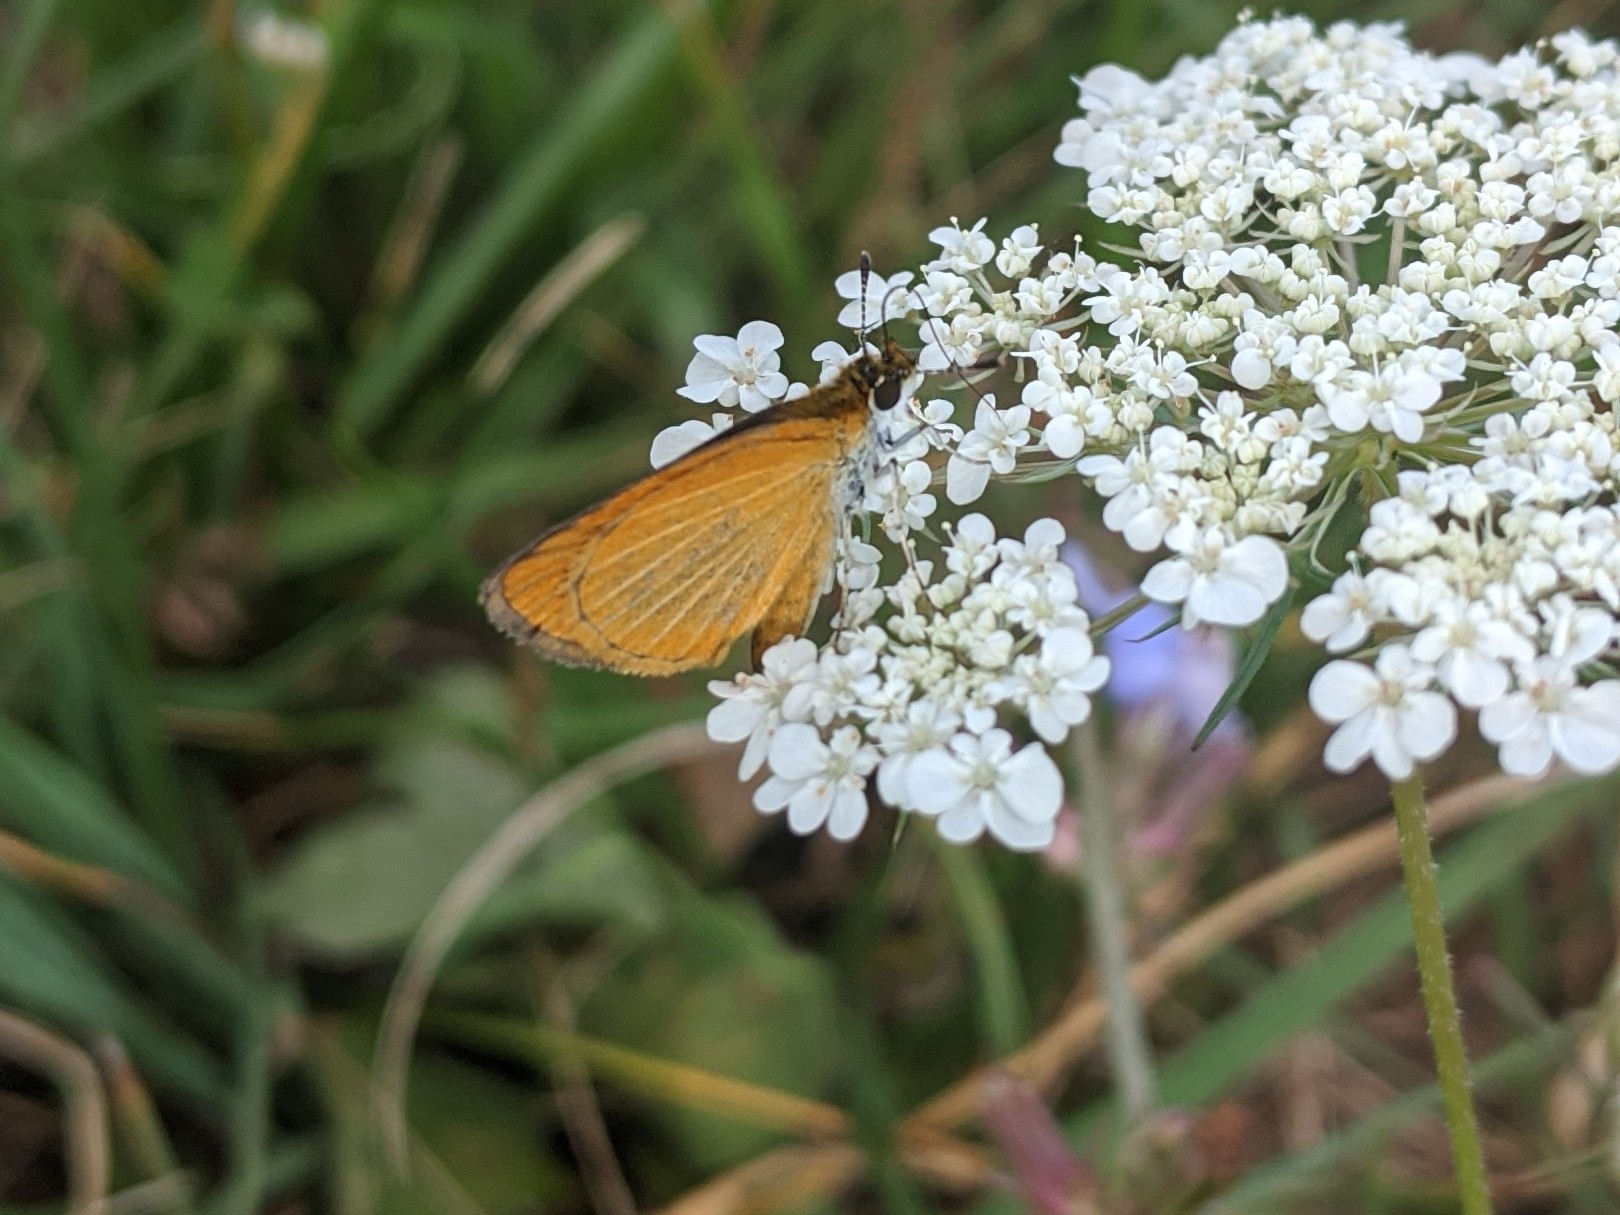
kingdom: Animalia
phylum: Arthropoda
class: Insecta
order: Lepidoptera
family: Hesperiidae
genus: Ancyloxypha
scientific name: Ancyloxypha numitor
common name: Least skipper
